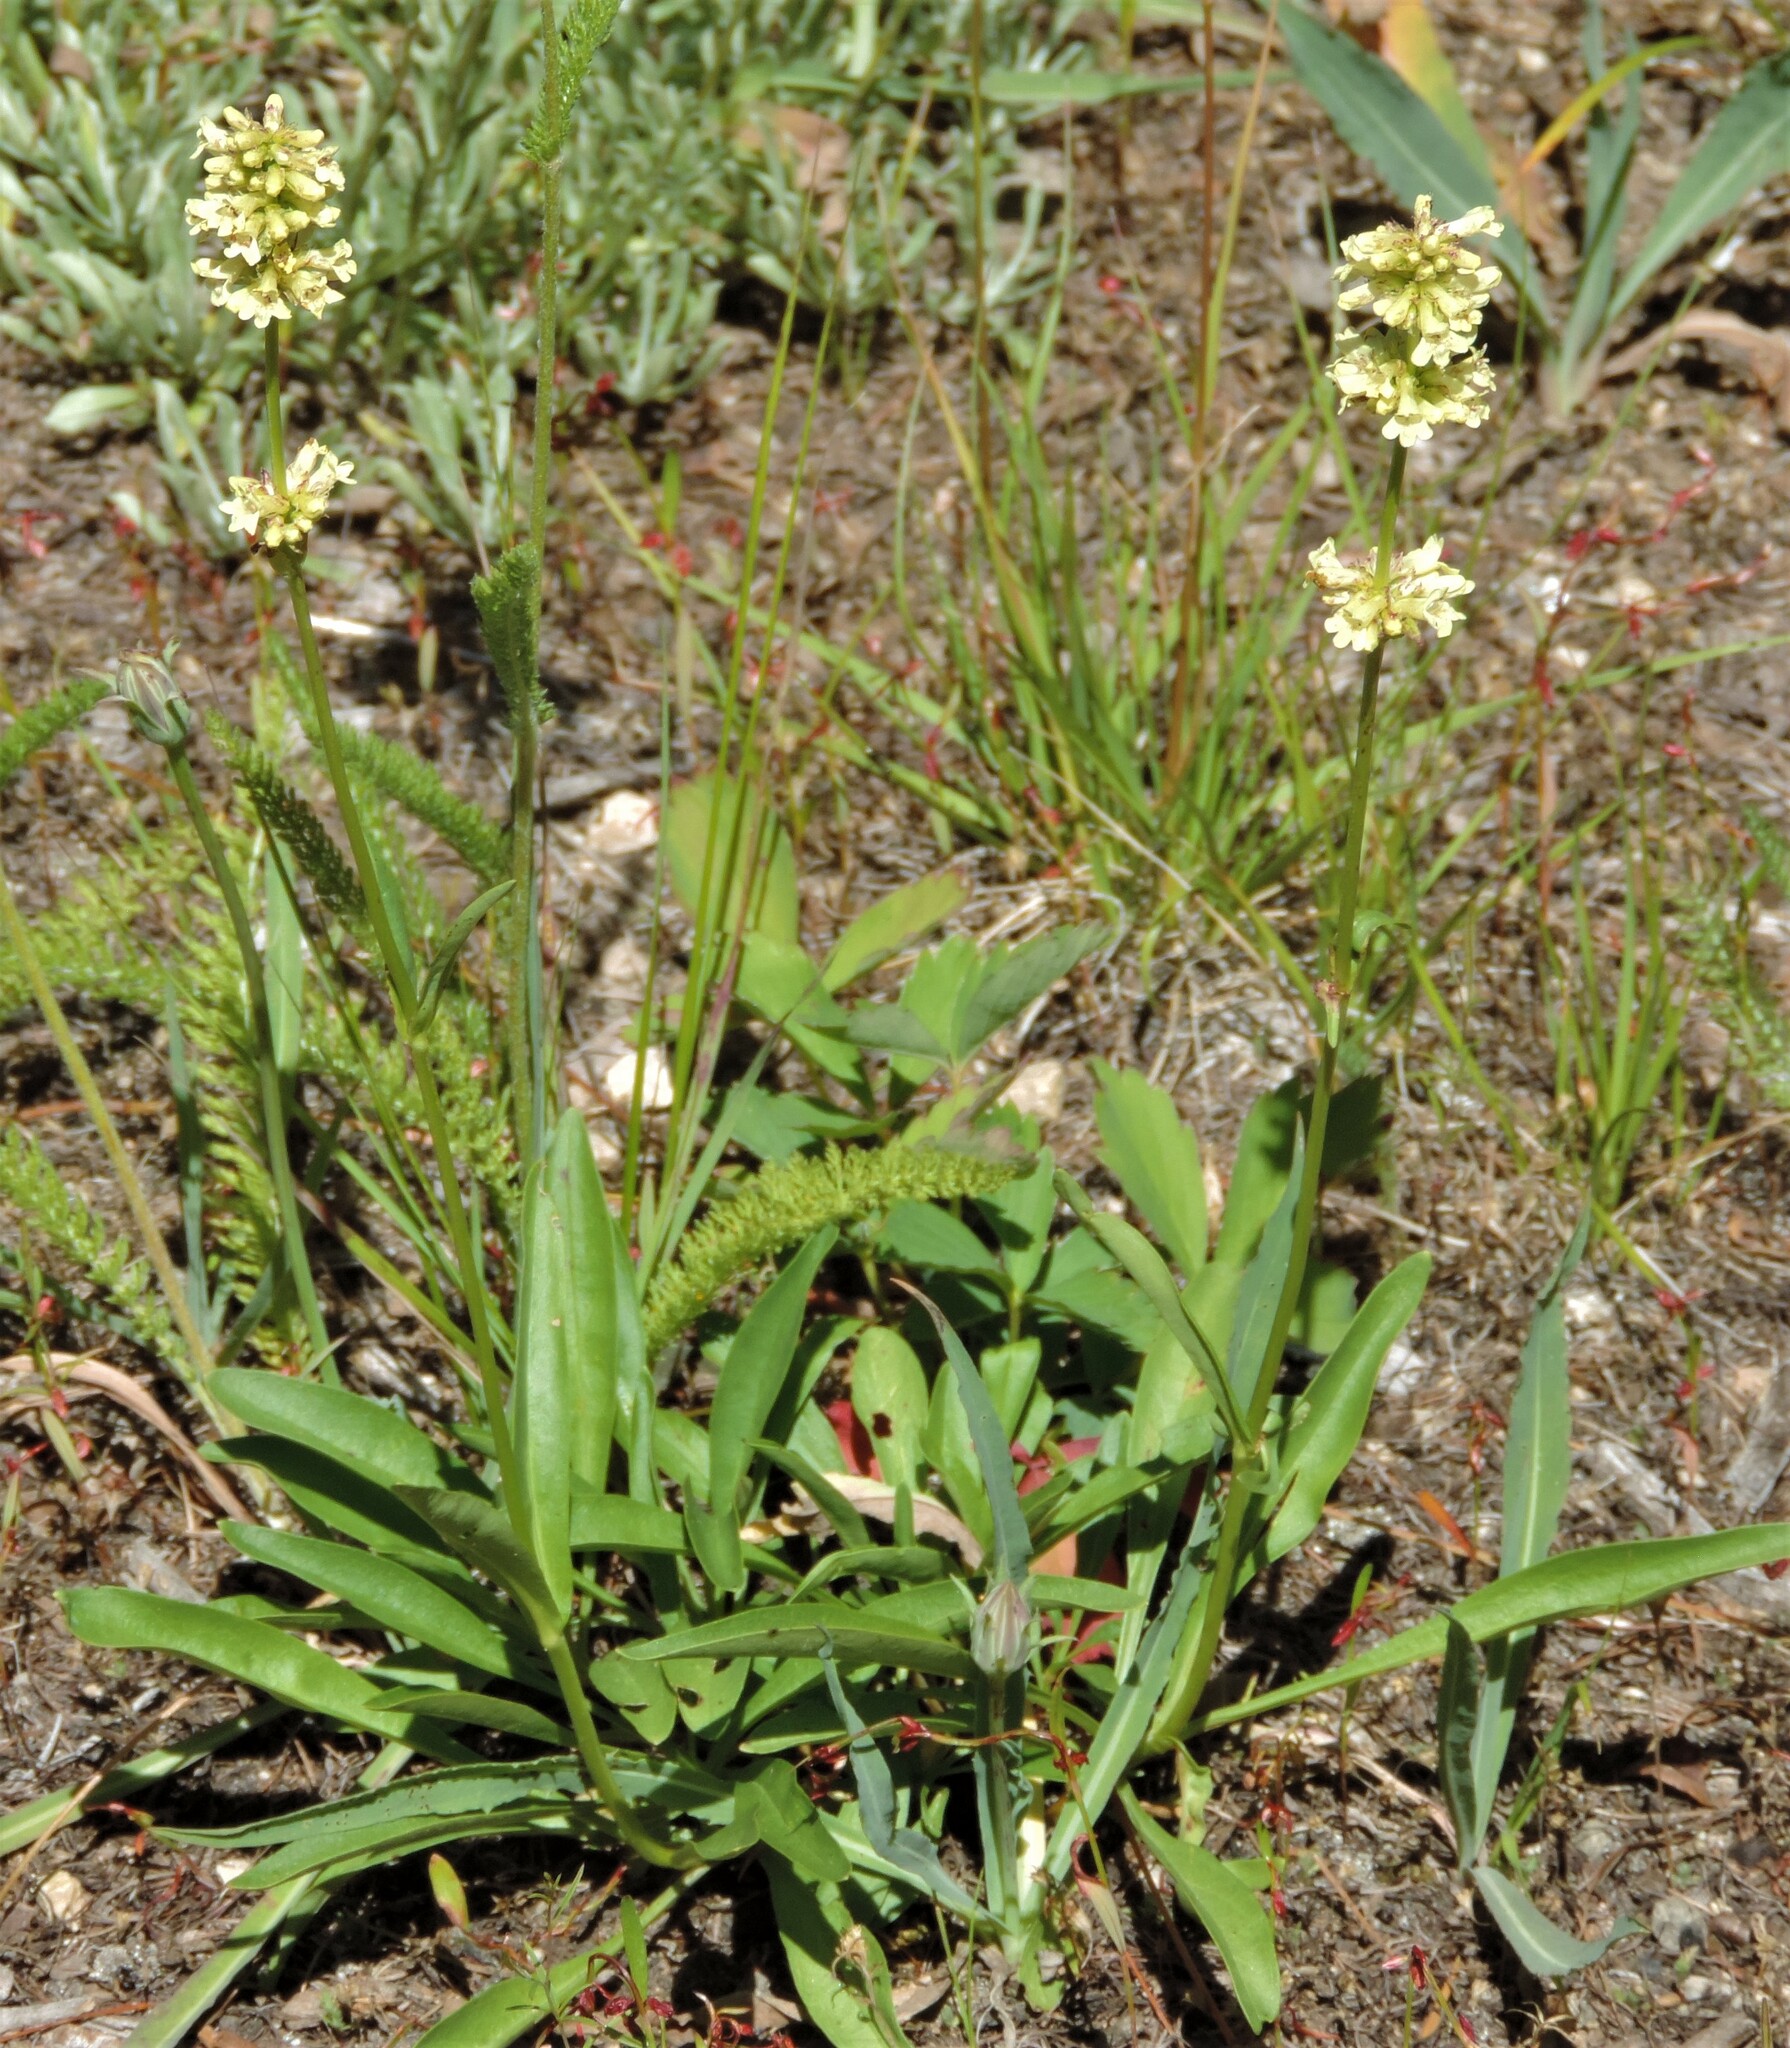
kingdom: Plantae
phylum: Tracheophyta
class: Magnoliopsida
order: Lamiales
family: Plantaginaceae
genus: Penstemon
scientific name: Penstemon confertus
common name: Lesser yellow beardtongue
